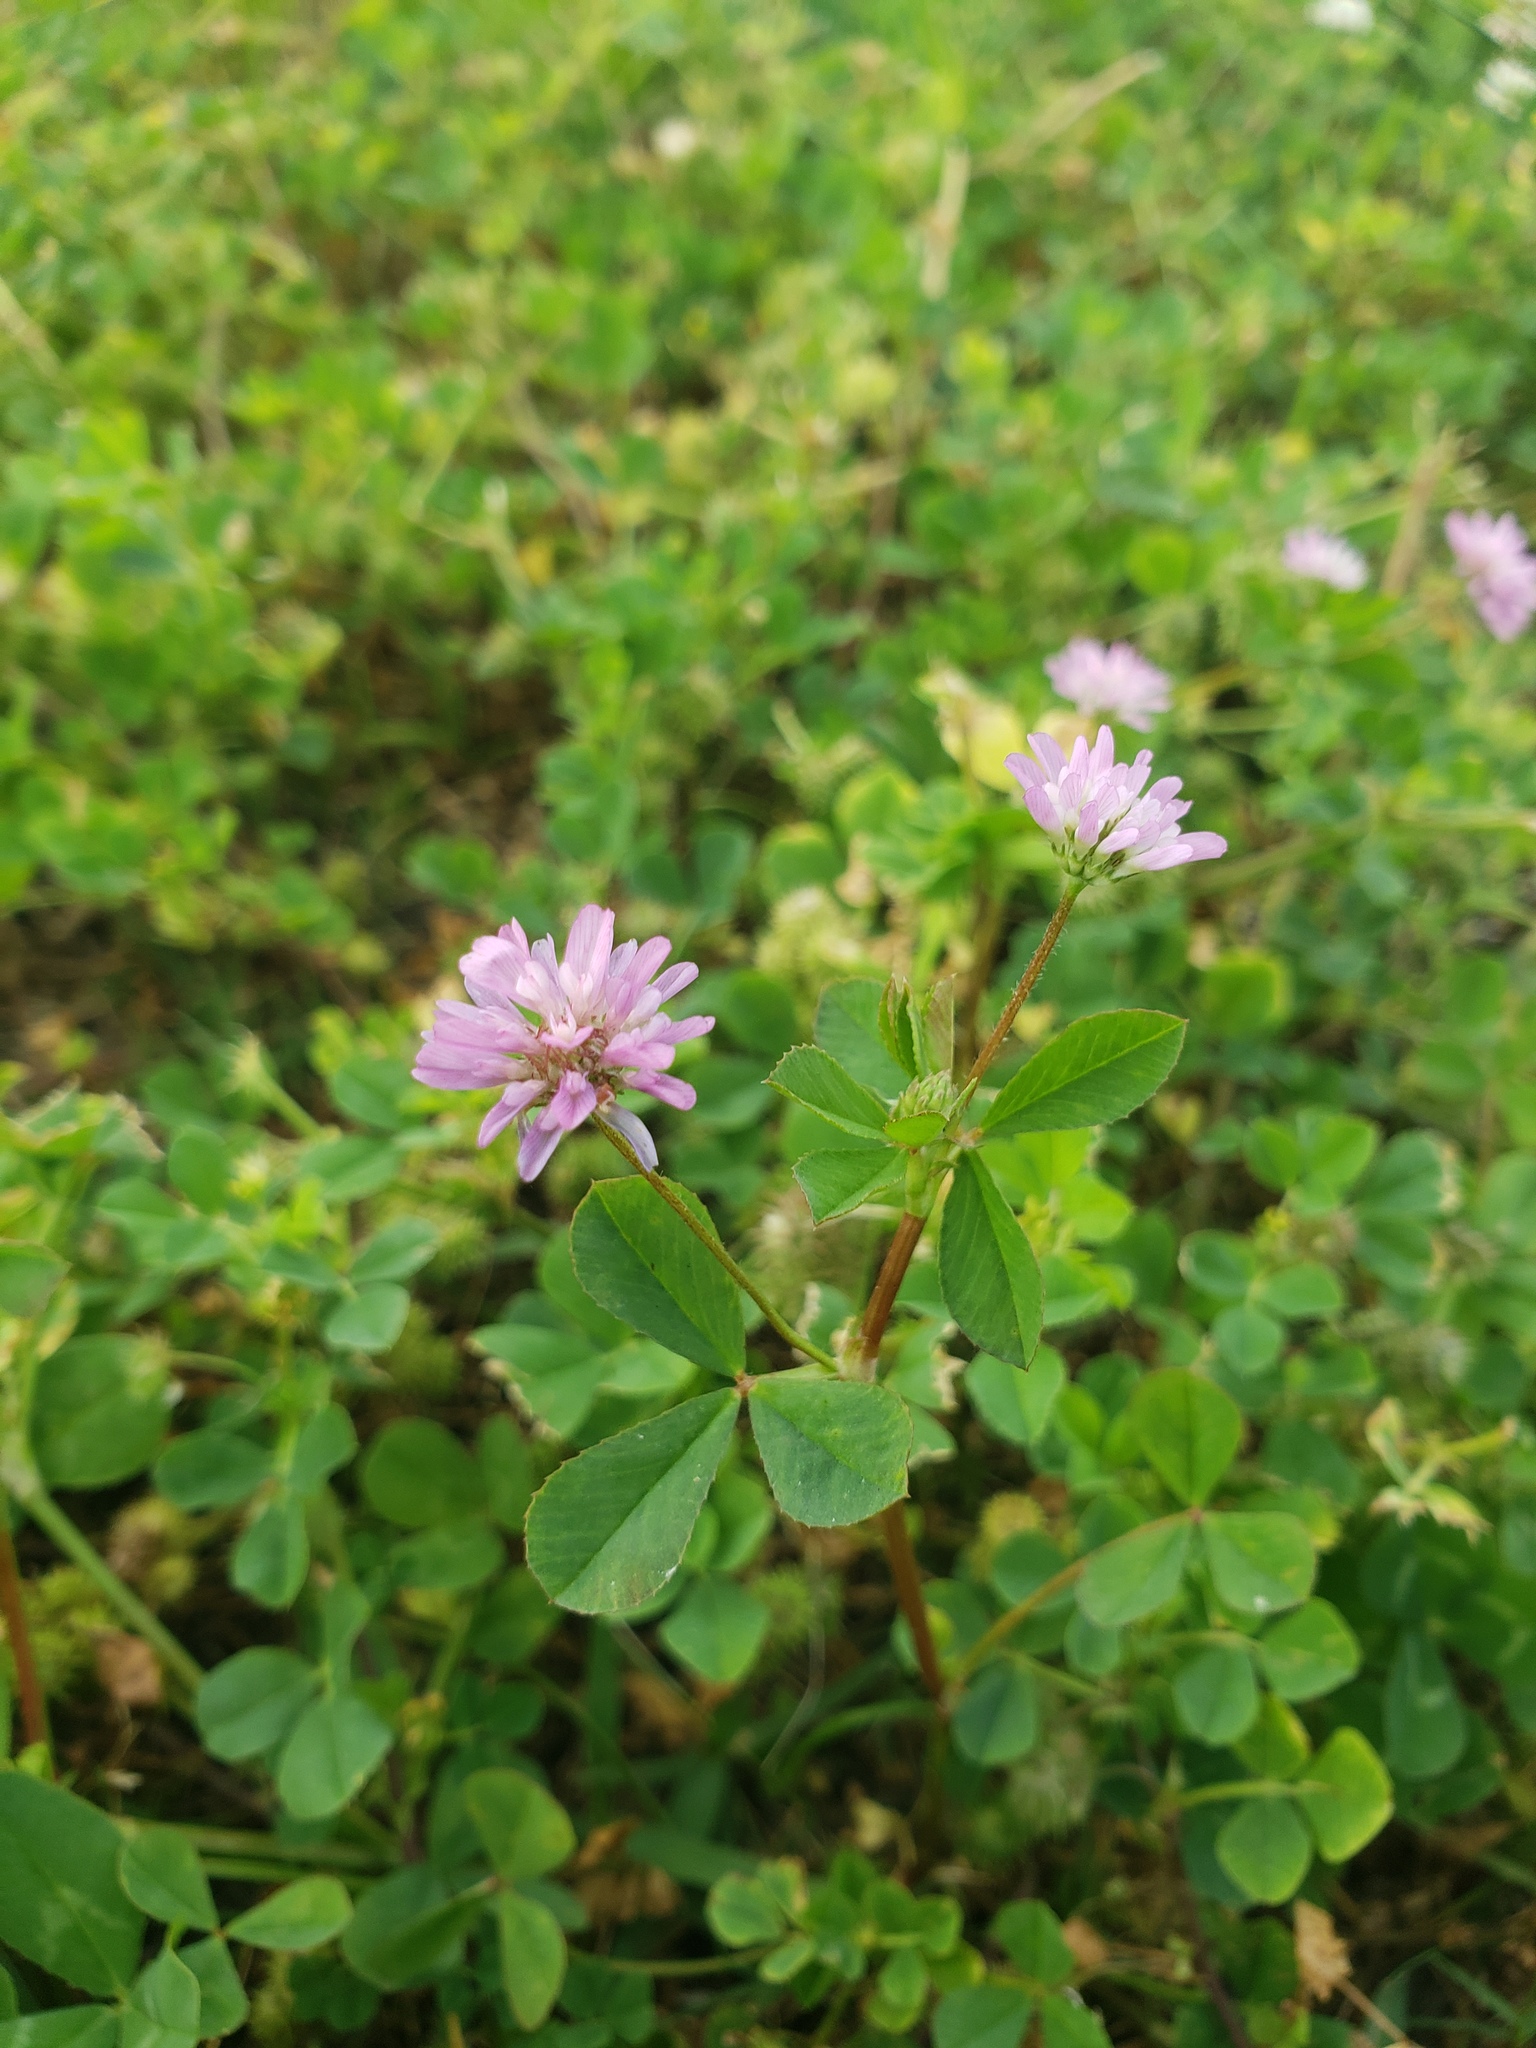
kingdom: Plantae
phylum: Tracheophyta
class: Magnoliopsida
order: Fabales
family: Fabaceae
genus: Trifolium
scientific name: Trifolium resupinatum
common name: Reversed clover
